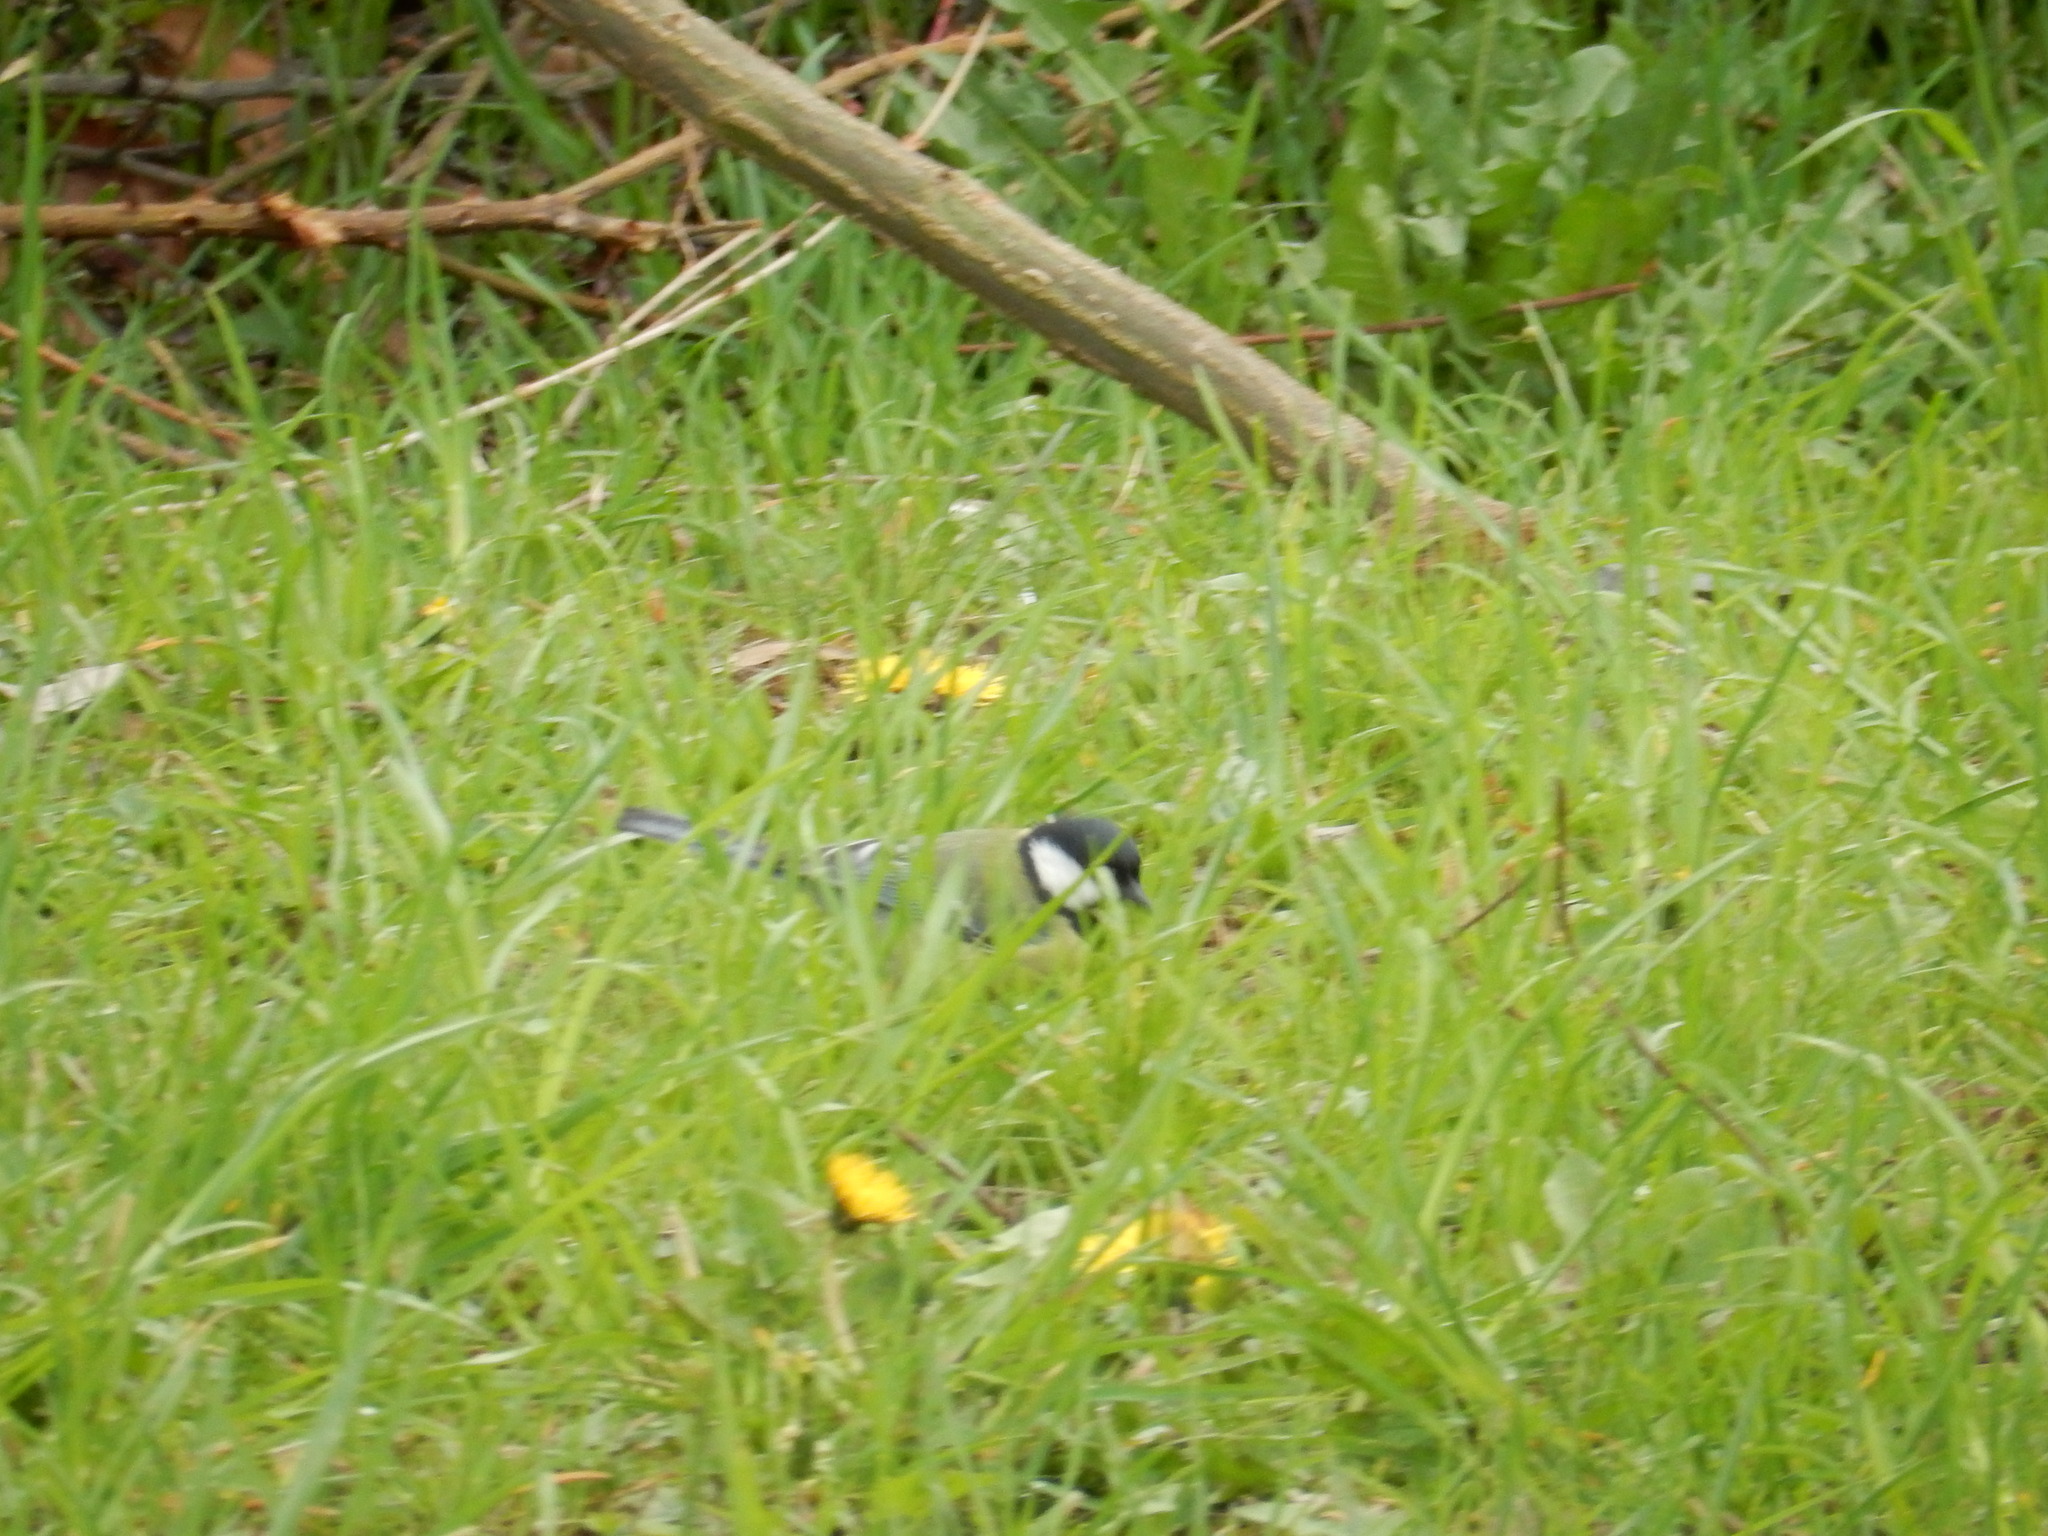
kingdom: Animalia
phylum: Chordata
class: Aves
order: Passeriformes
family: Paridae
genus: Parus
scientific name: Parus major
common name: Great tit
